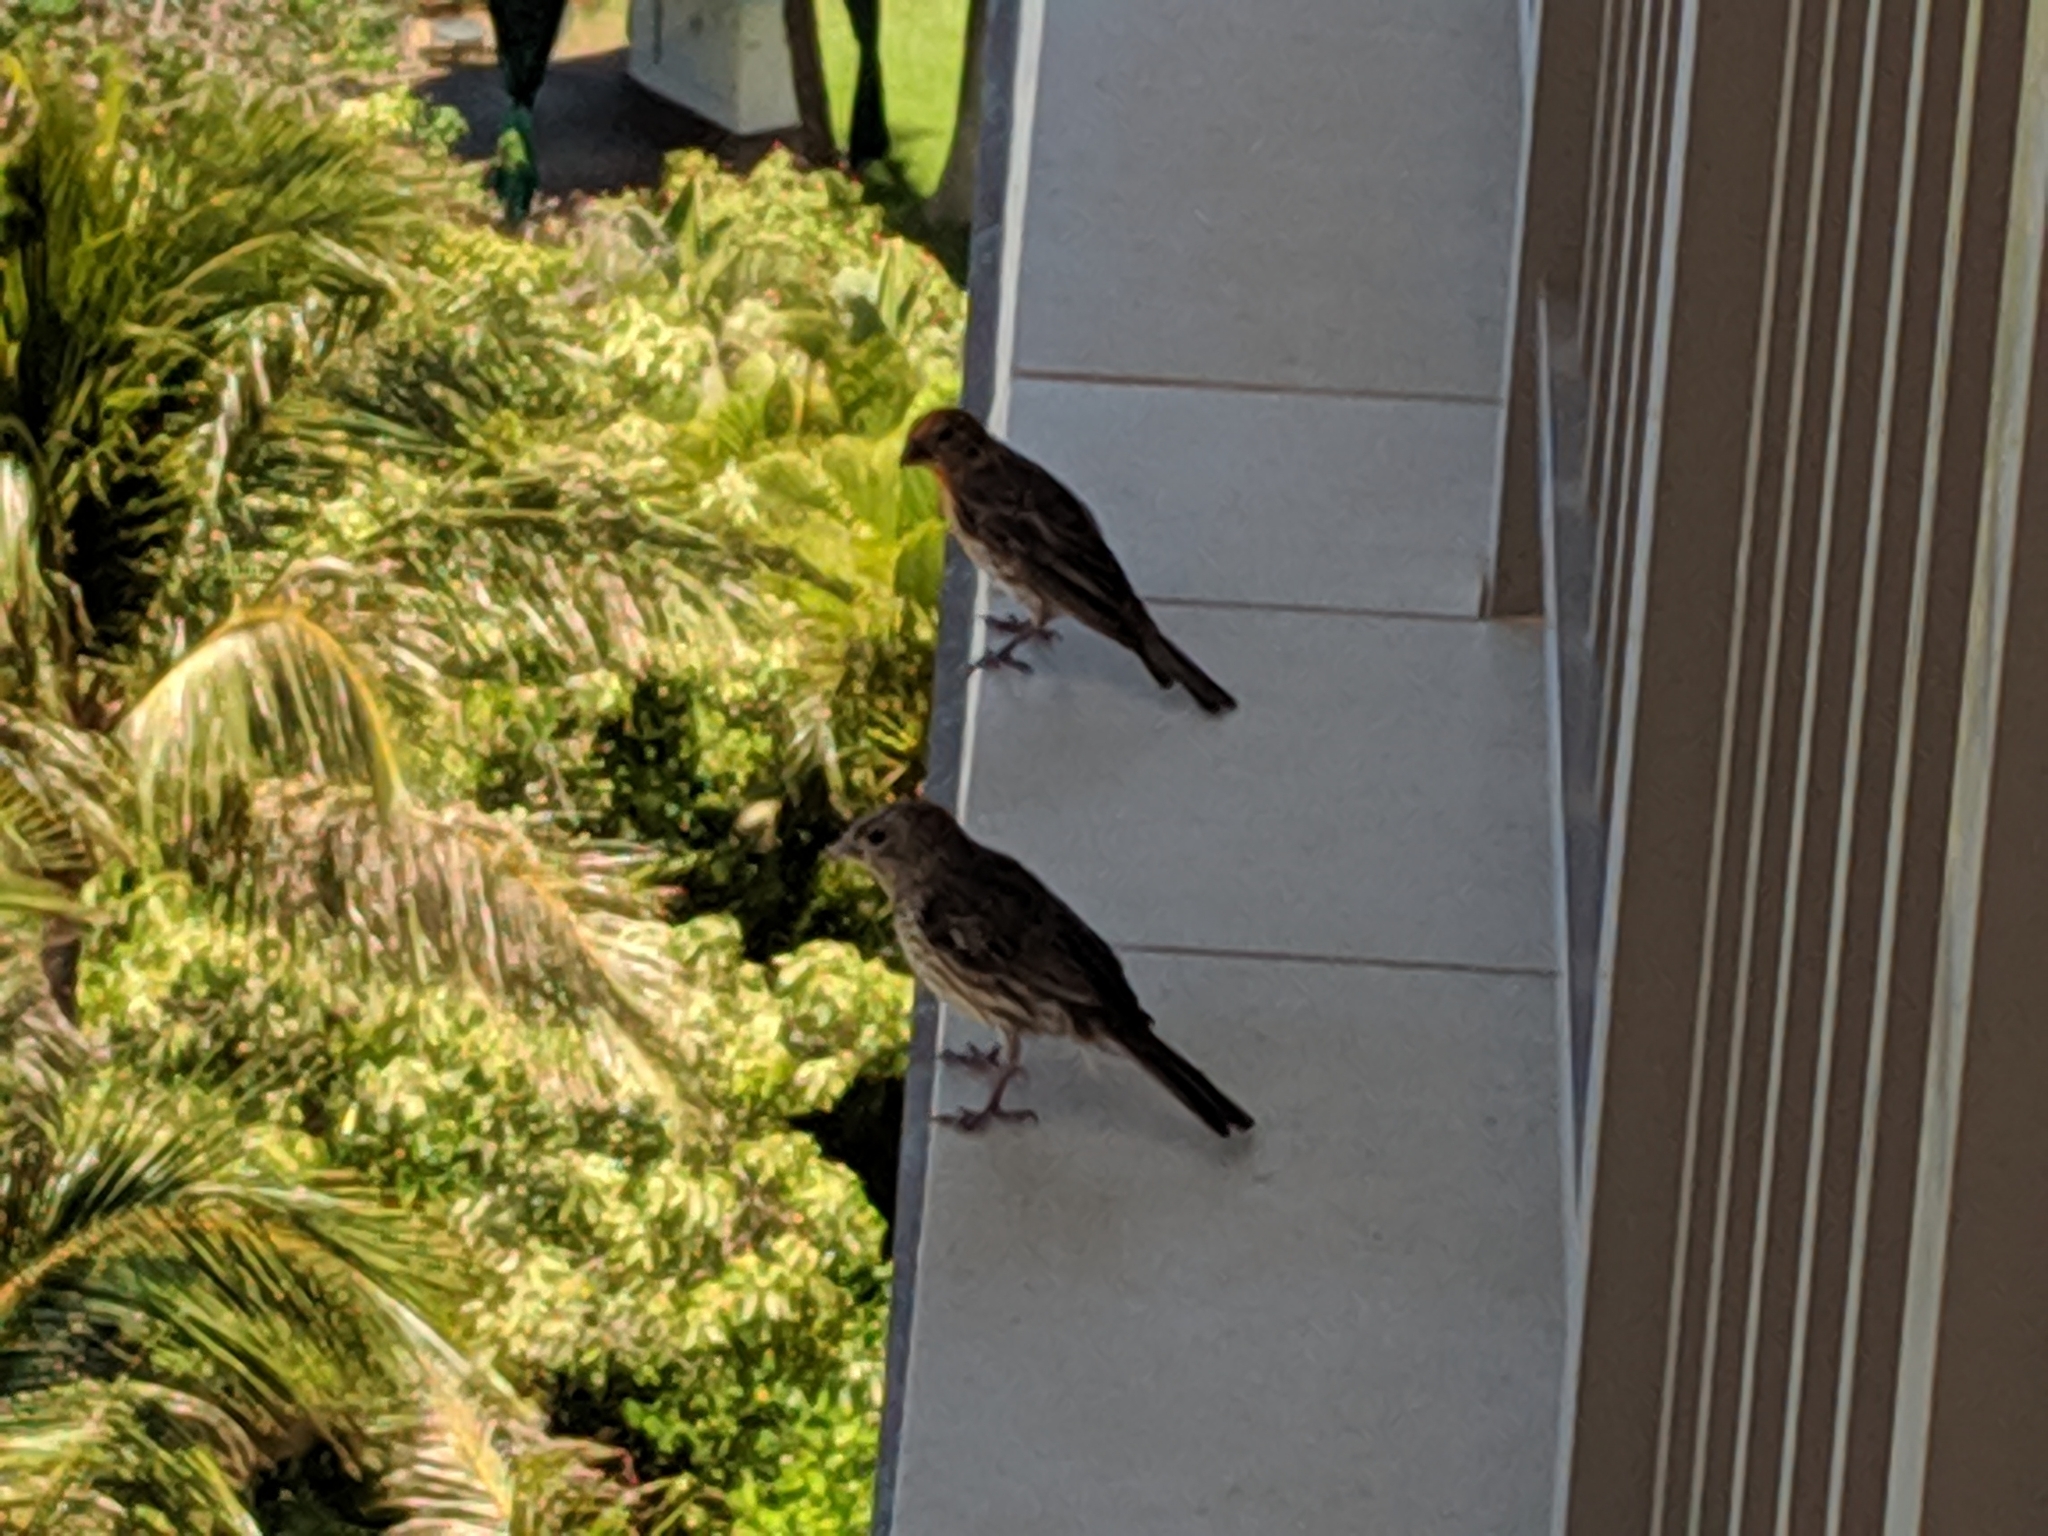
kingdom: Animalia
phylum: Chordata
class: Aves
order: Passeriformes
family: Fringillidae
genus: Haemorhous
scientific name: Haemorhous mexicanus
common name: House finch
